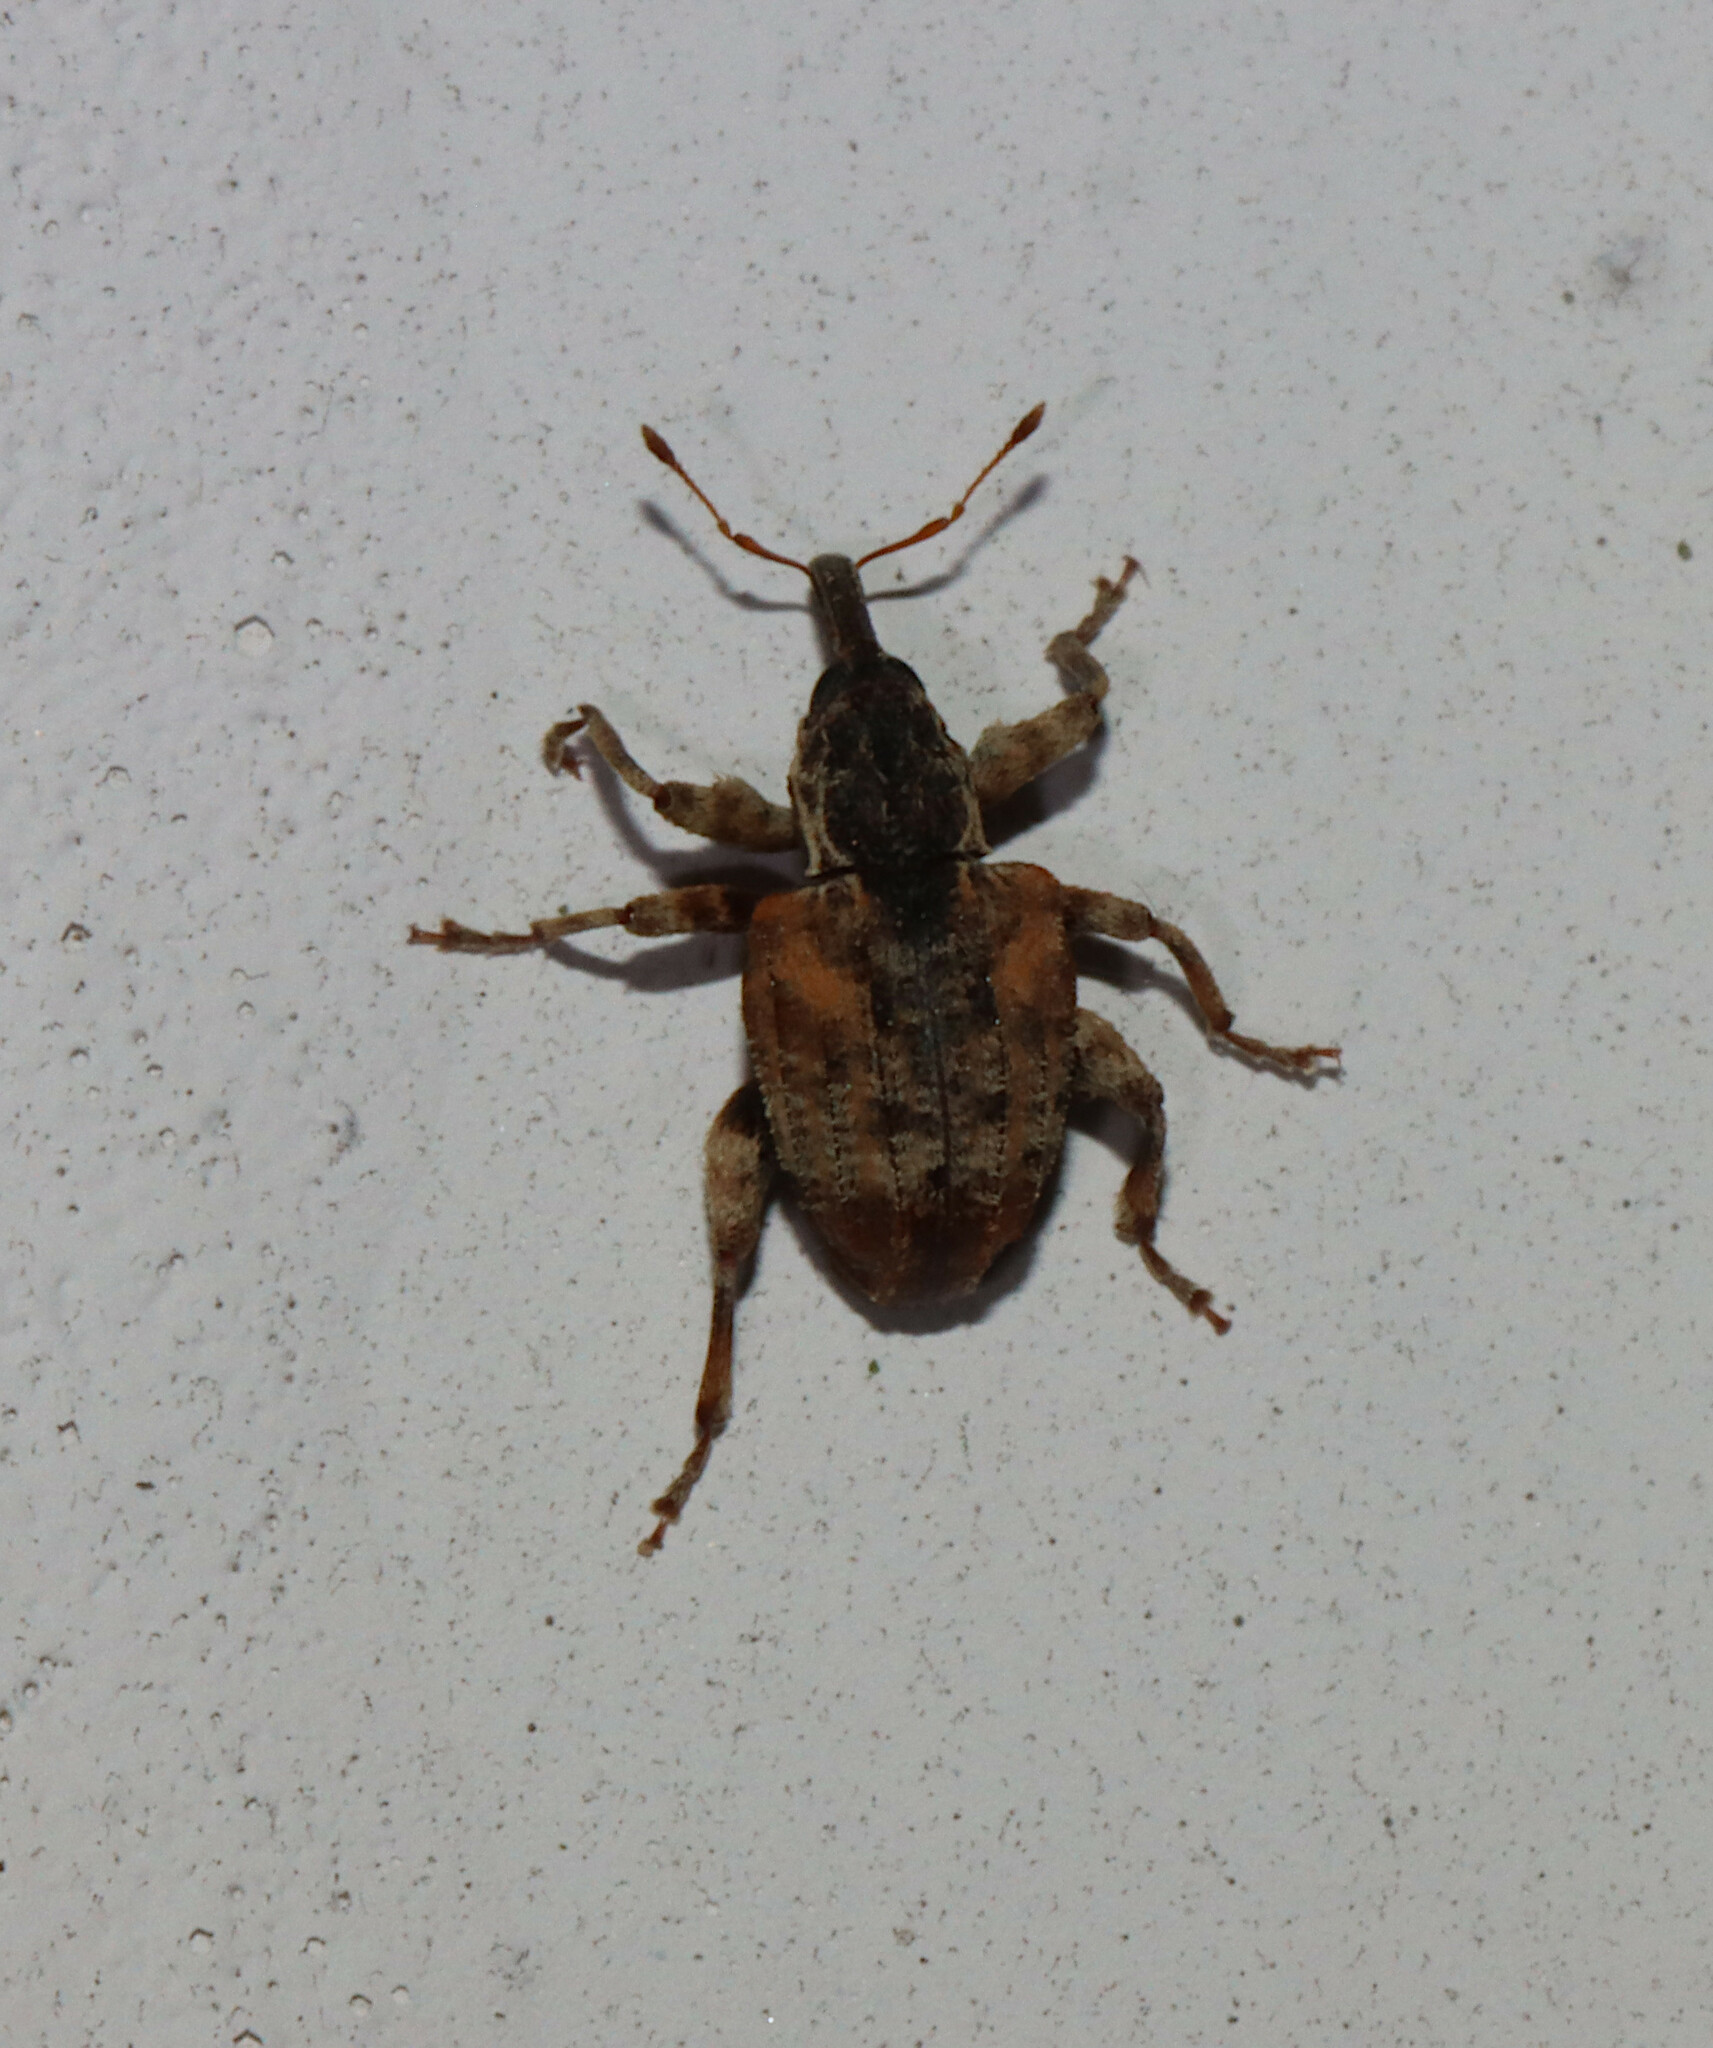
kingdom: Animalia
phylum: Arthropoda
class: Insecta
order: Coleoptera
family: Curculionidae
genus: Conotrachelus
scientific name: Conotrachelus anaglypticus
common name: Cambium curculio
